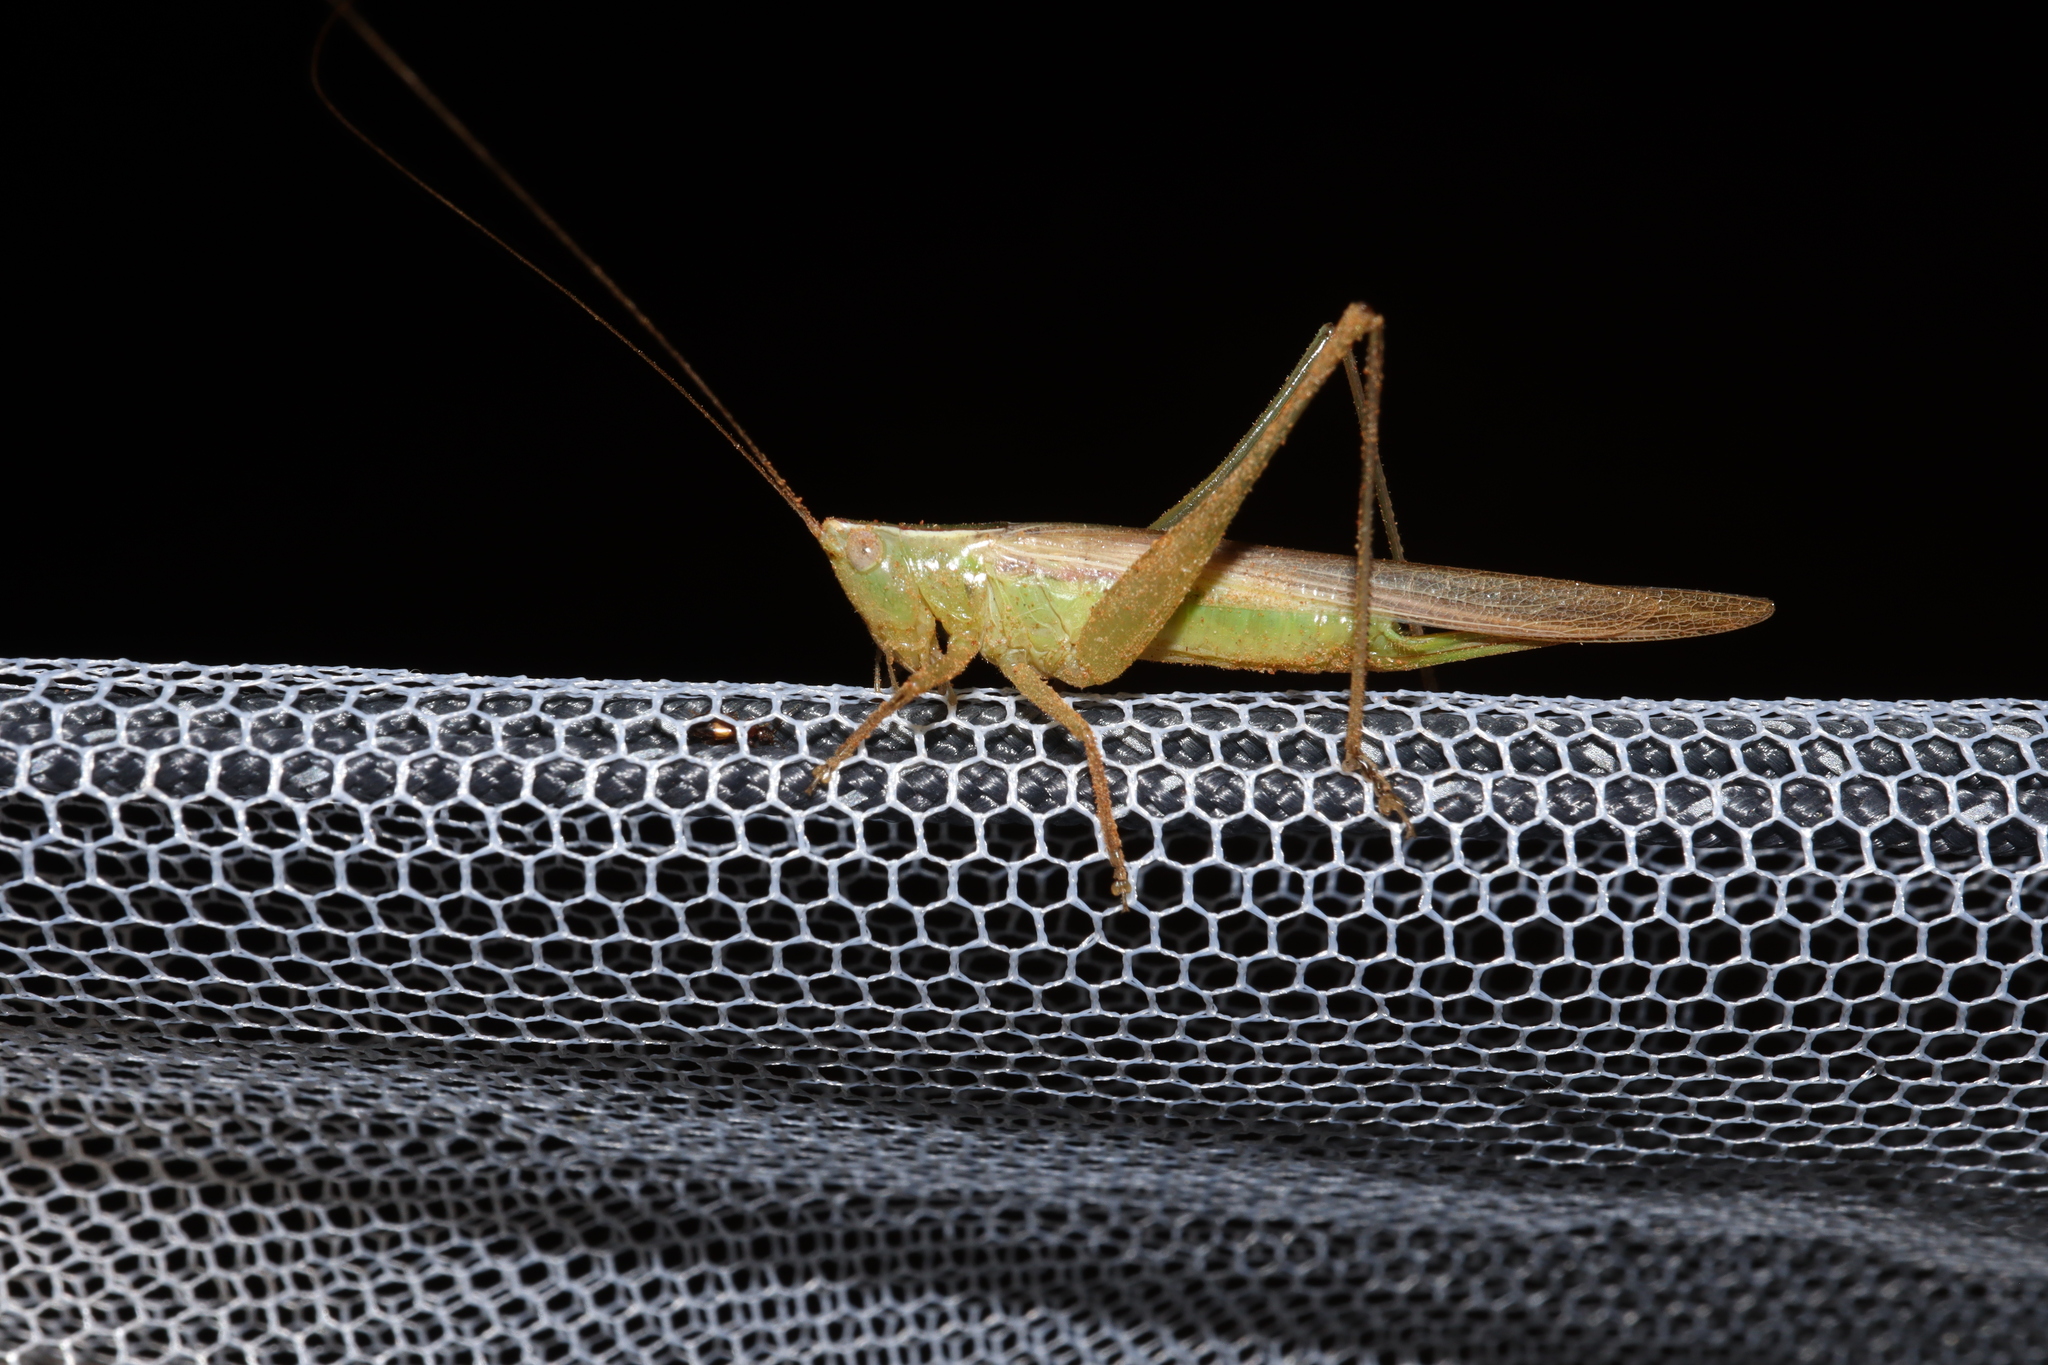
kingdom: Animalia
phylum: Arthropoda
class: Insecta
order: Orthoptera
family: Tettigoniidae
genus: Conocephalus
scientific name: Conocephalus upoluensis
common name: Upolu meadow katydid
